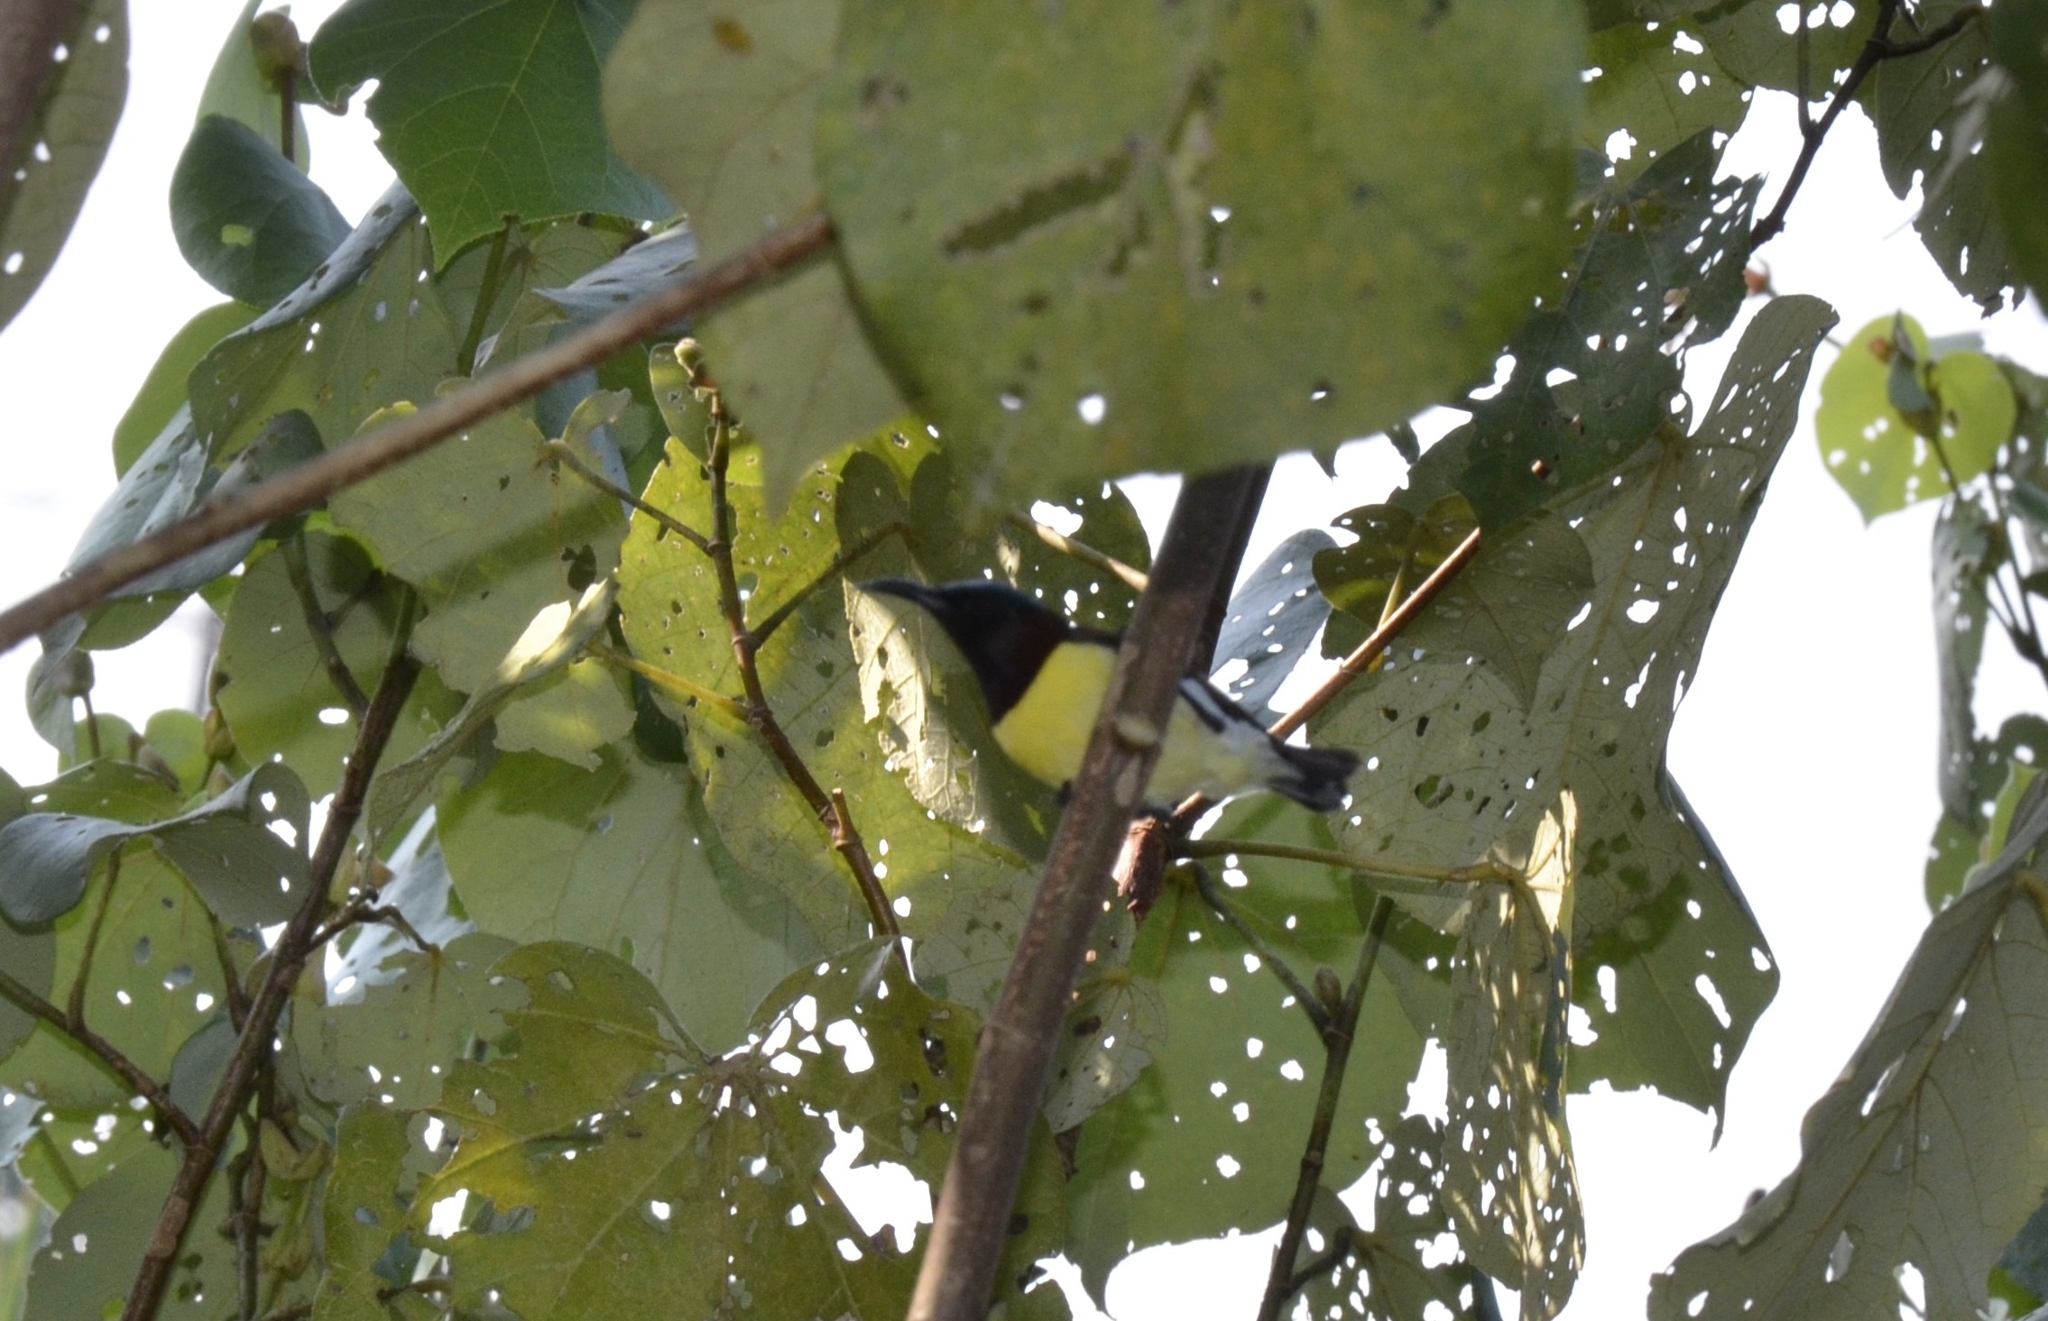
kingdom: Animalia
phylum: Chordata
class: Aves
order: Passeriformes
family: Nectariniidae
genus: Leptocoma
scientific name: Leptocoma zeylonica
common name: Purple-rumped sunbird
